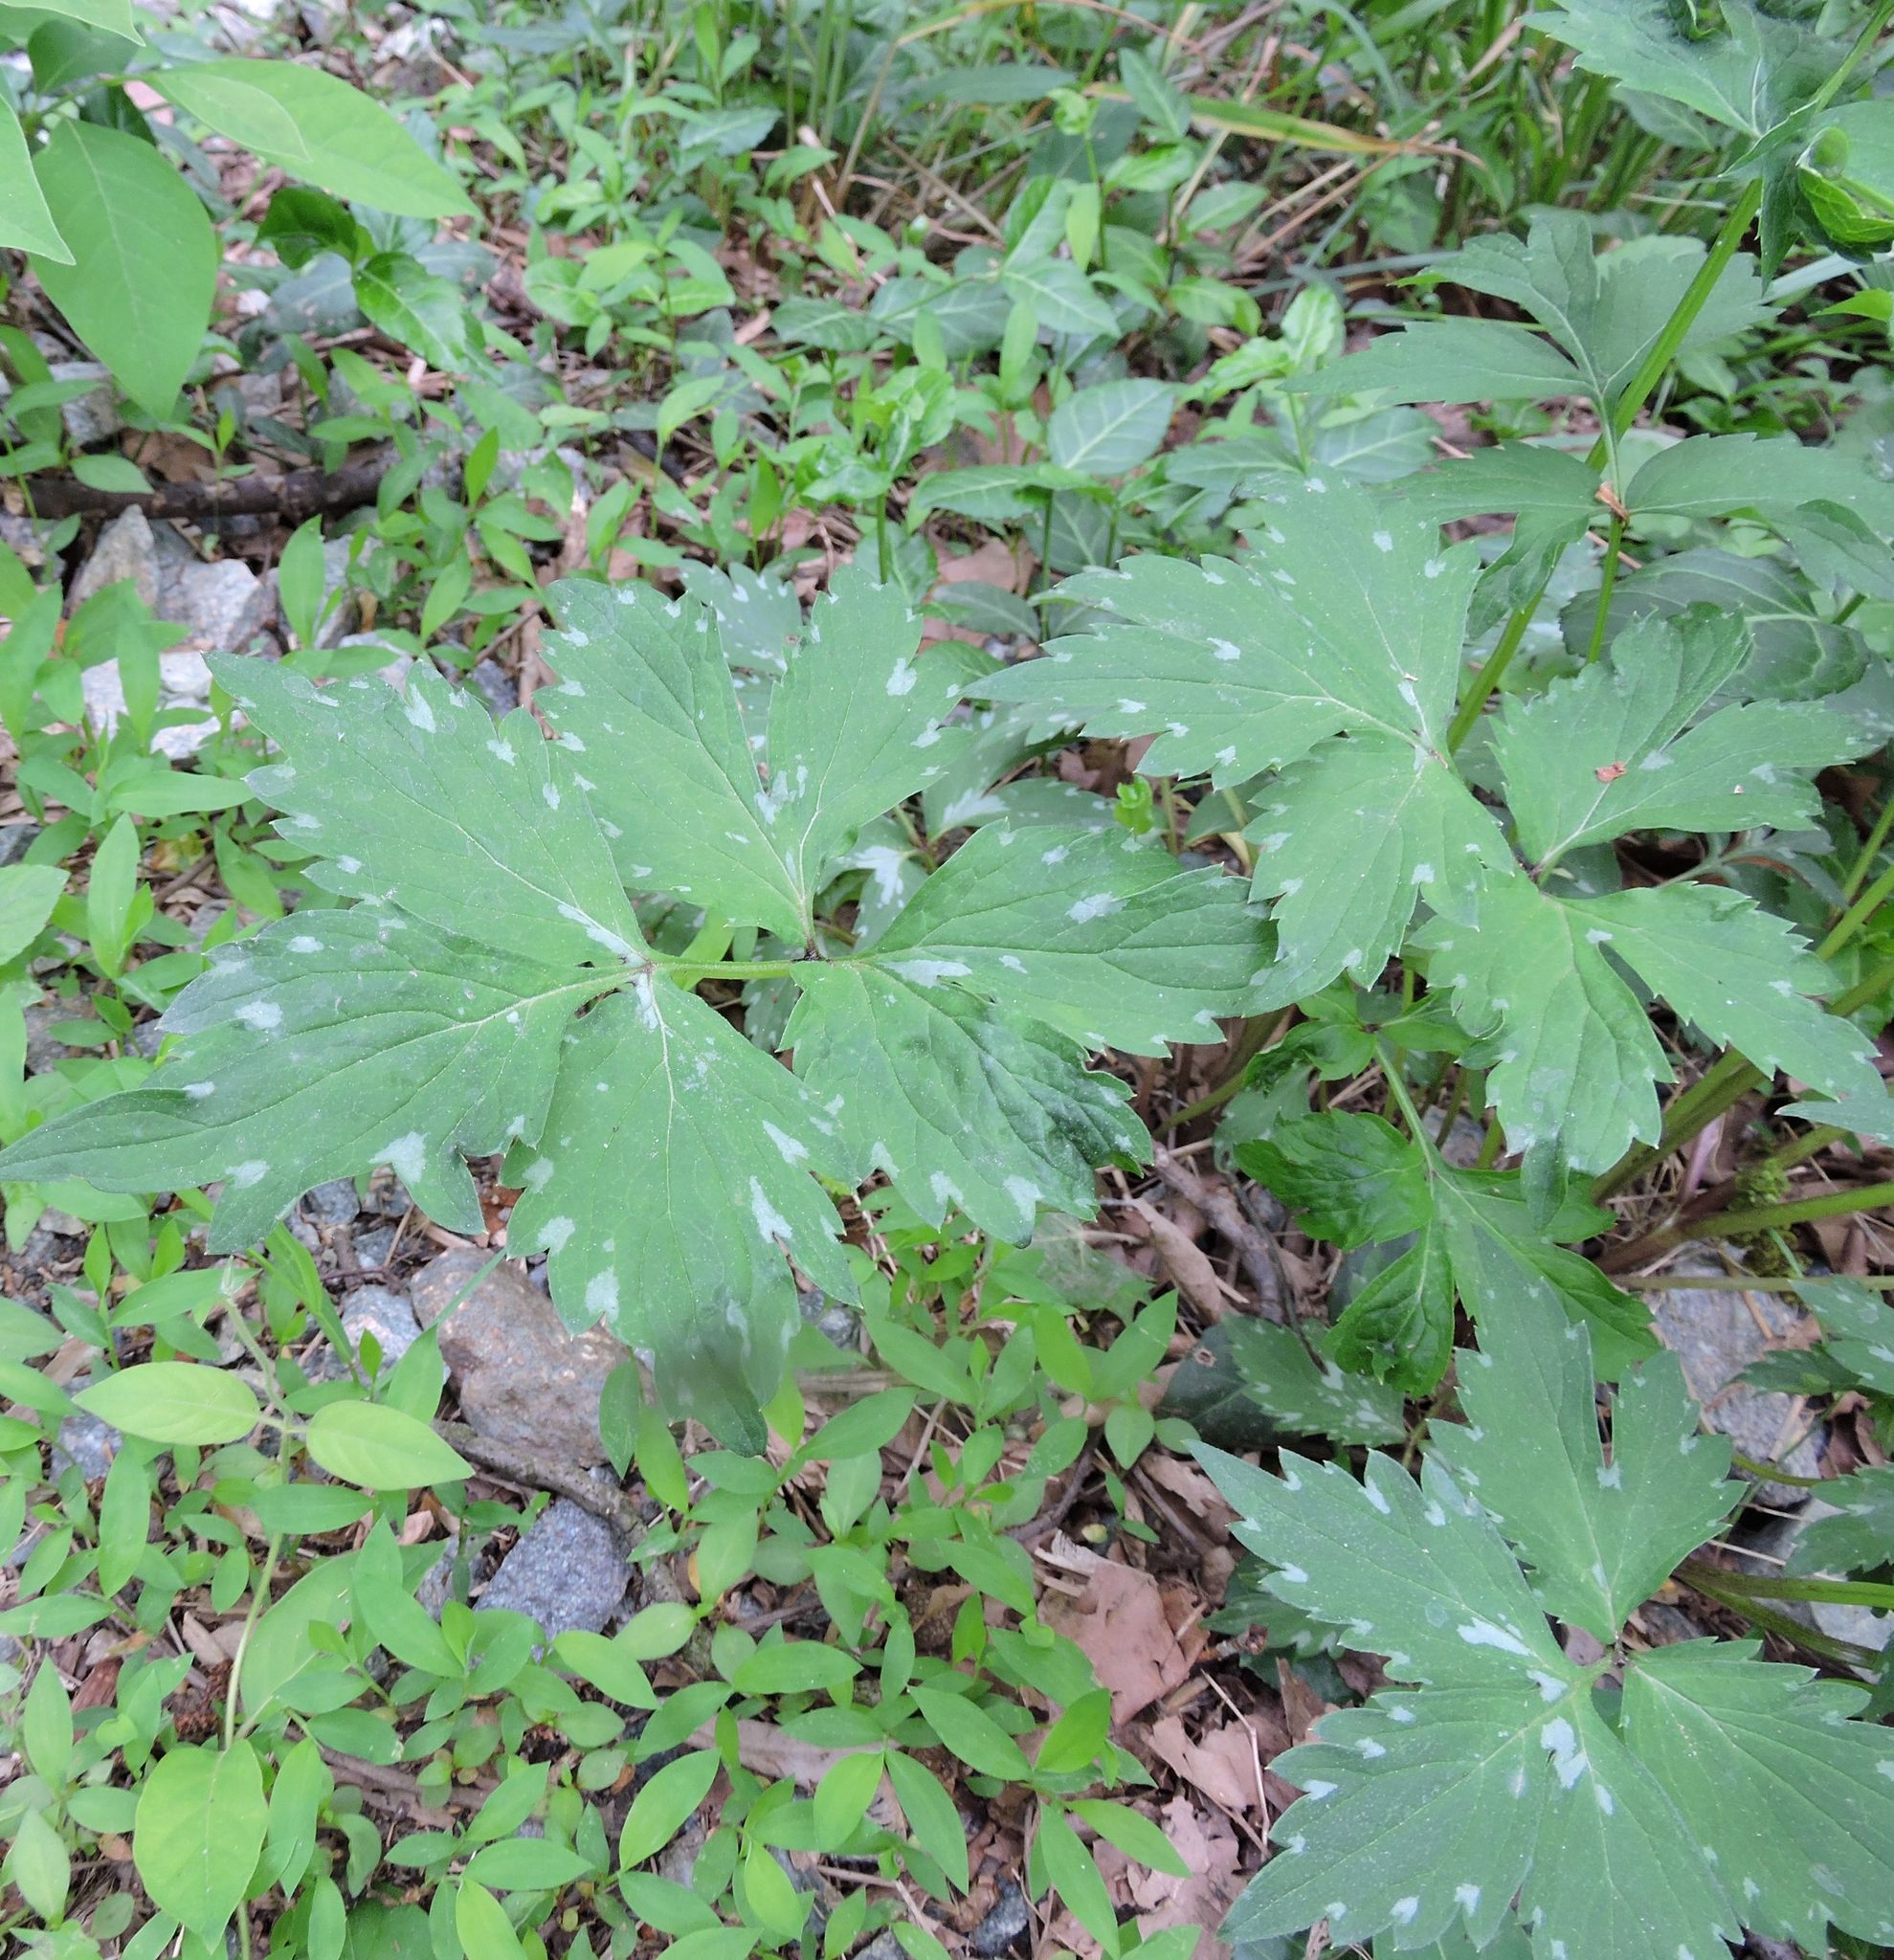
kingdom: Plantae
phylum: Tracheophyta
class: Magnoliopsida
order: Boraginales
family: Hydrophyllaceae
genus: Hydrophyllum
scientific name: Hydrophyllum virginianum
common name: Virginia waterleaf
